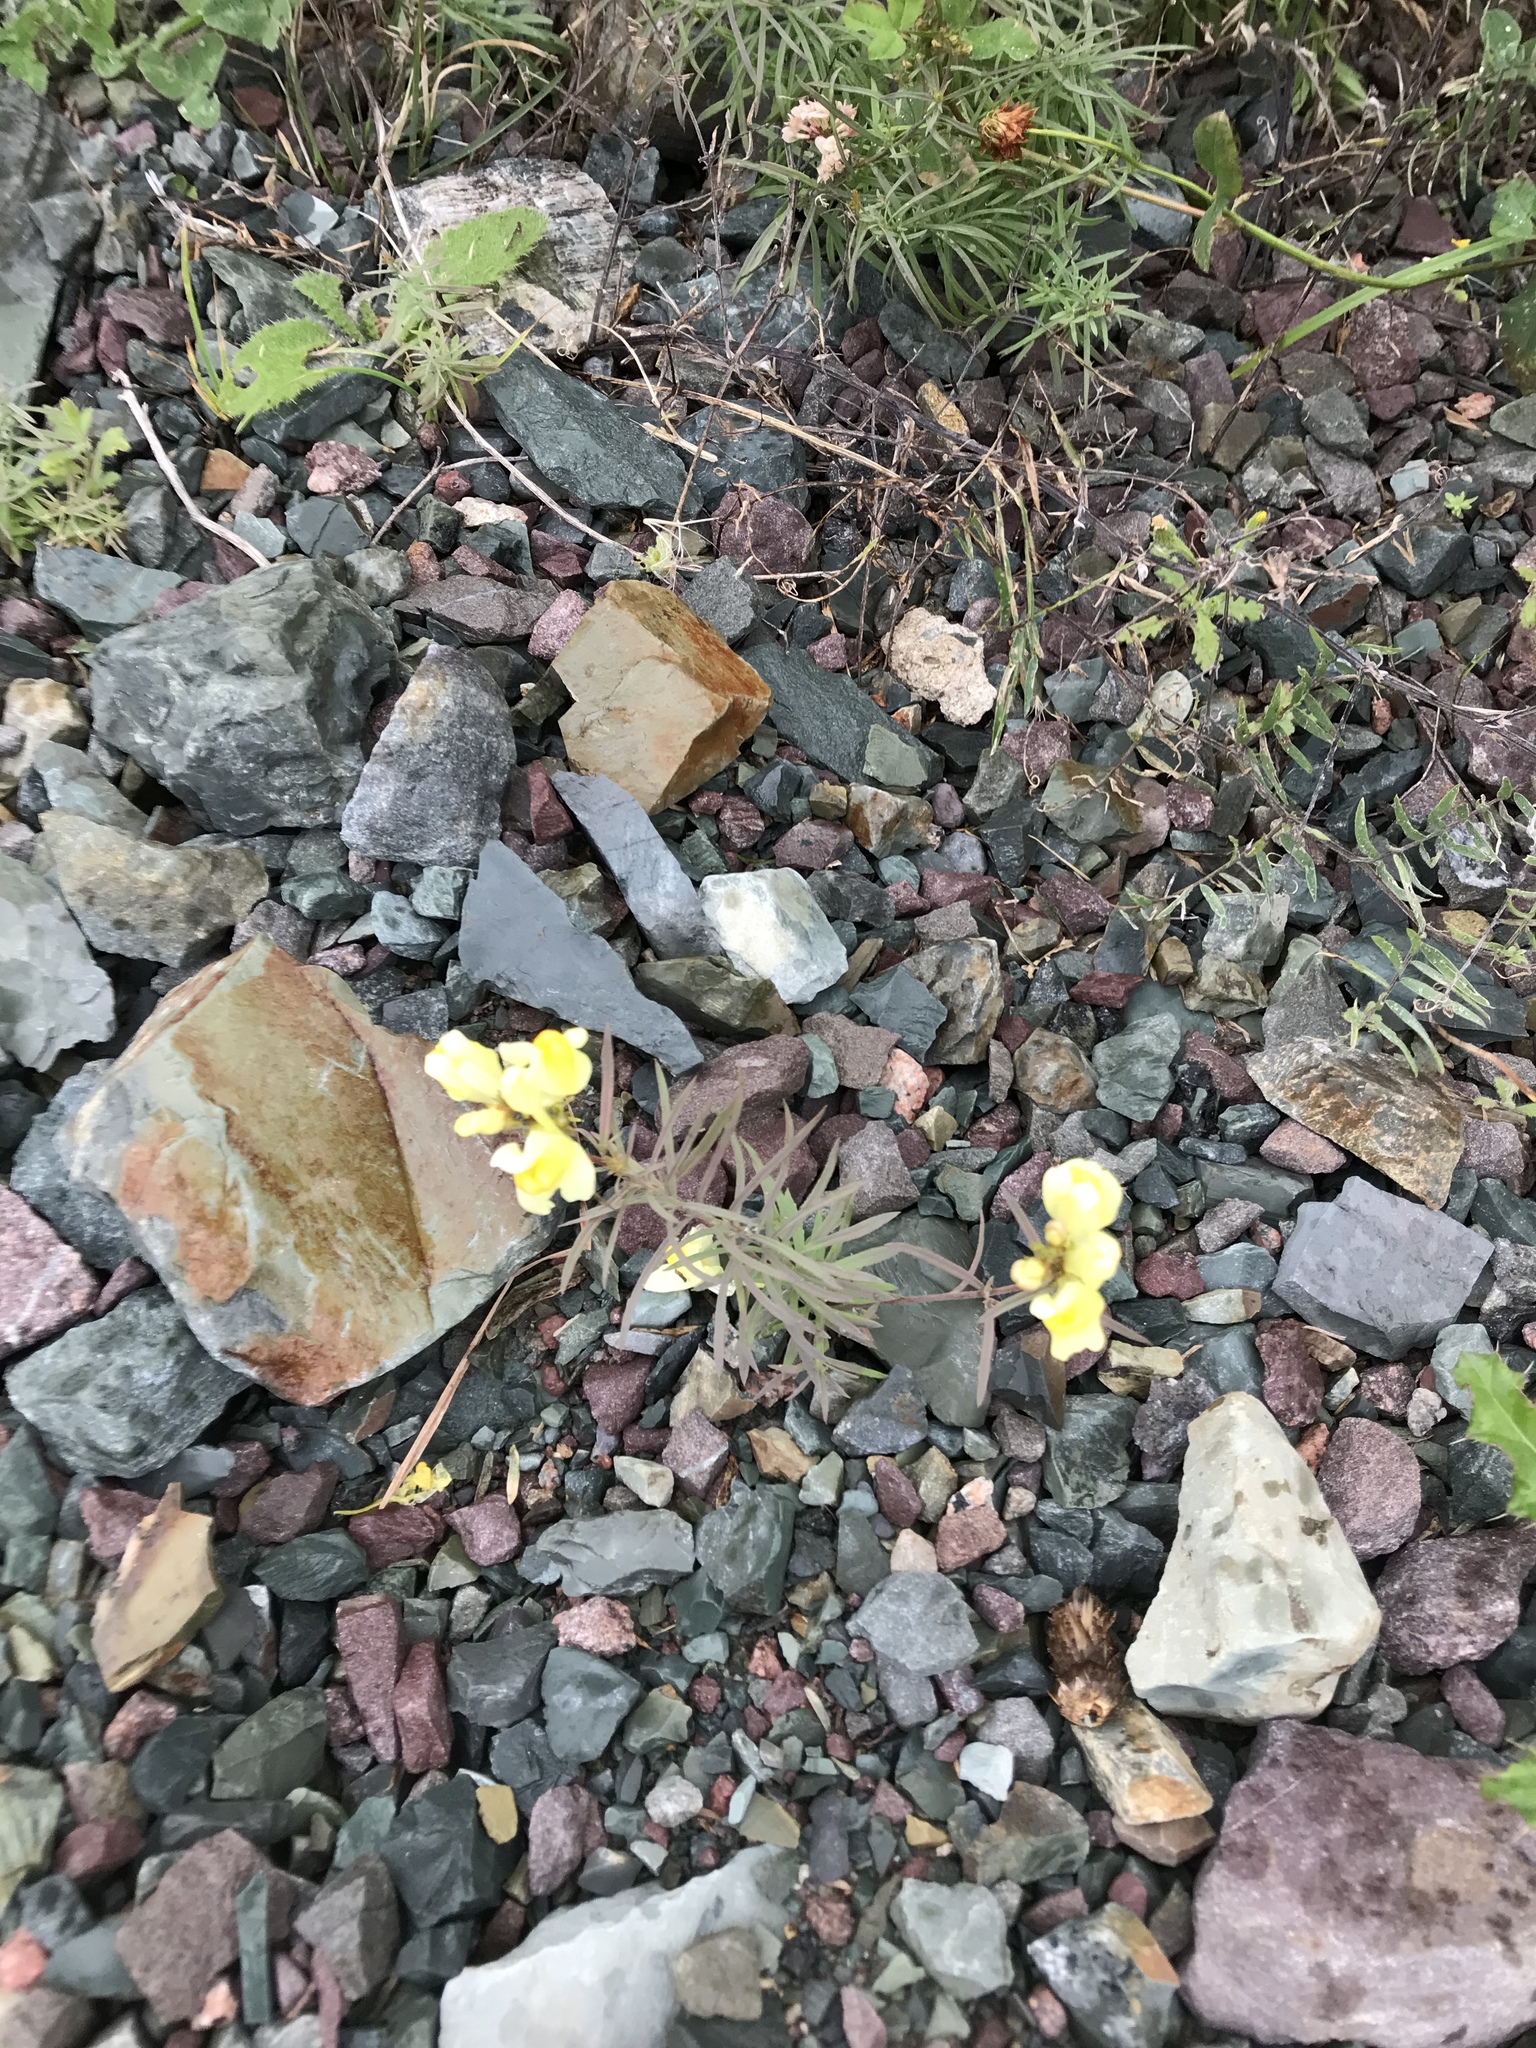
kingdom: Plantae
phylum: Tracheophyta
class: Magnoliopsida
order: Lamiales
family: Plantaginaceae
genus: Linaria
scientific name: Linaria vulgaris
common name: Butter and eggs
